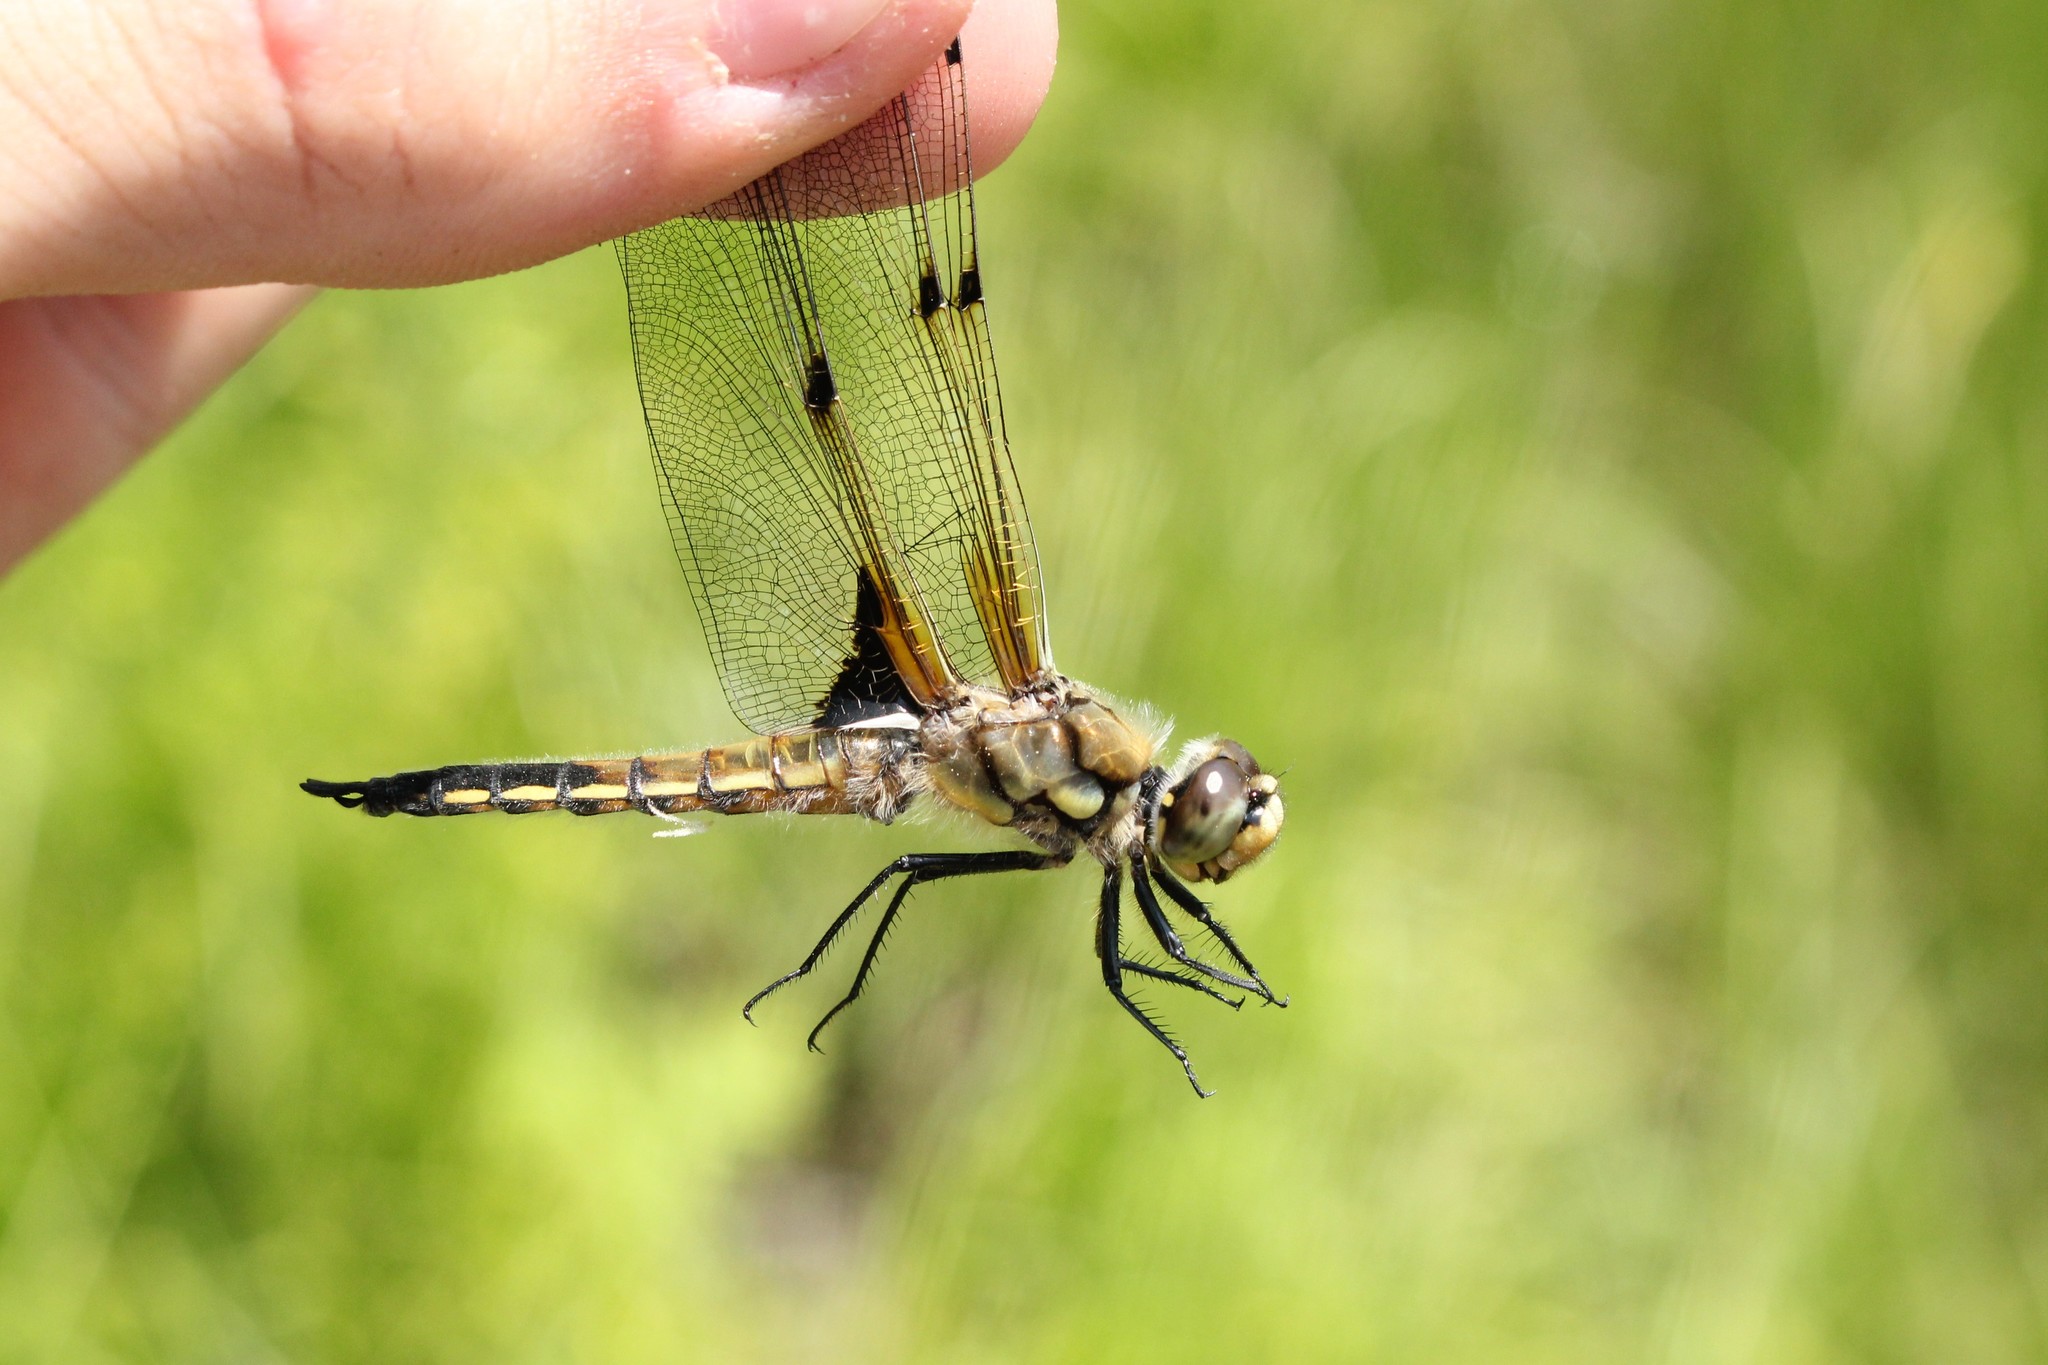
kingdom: Animalia
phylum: Arthropoda
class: Insecta
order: Odonata
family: Libellulidae
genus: Libellula
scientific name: Libellula quadrimaculata
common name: Four-spotted chaser
